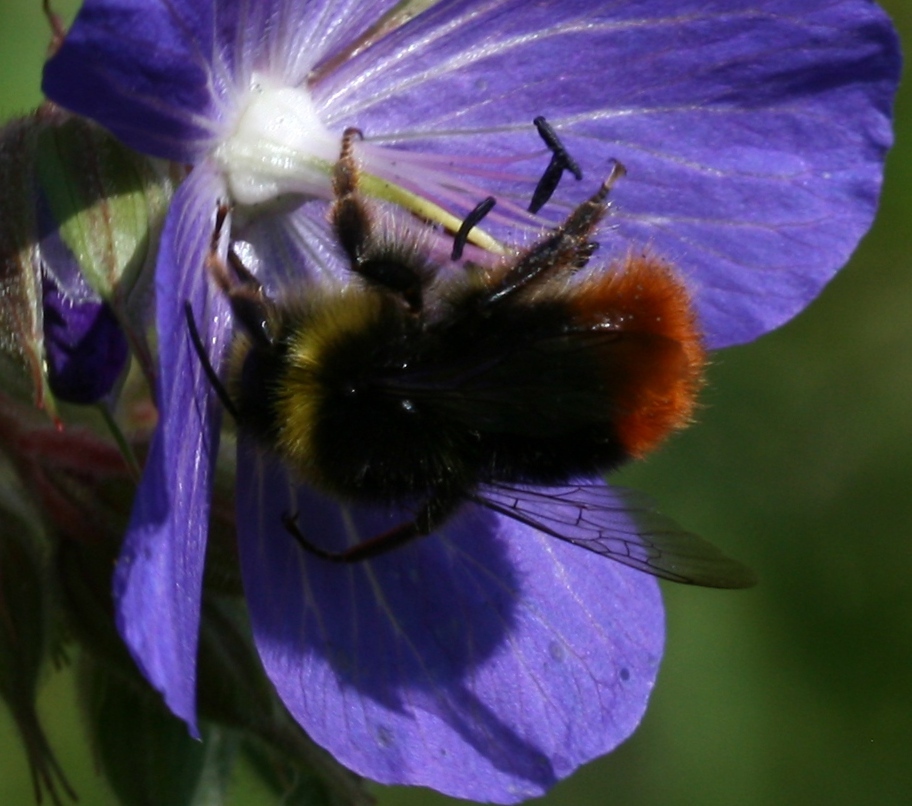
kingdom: Animalia
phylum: Arthropoda
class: Insecta
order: Hymenoptera
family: Apidae
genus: Bombus
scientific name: Bombus lapidarius
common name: Large red-tailed humble-bee
